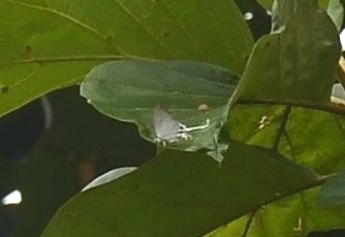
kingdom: Animalia
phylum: Arthropoda
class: Insecta
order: Lepidoptera
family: Lycaenidae
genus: Cheritra
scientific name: Cheritra freja
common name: Common imperial
